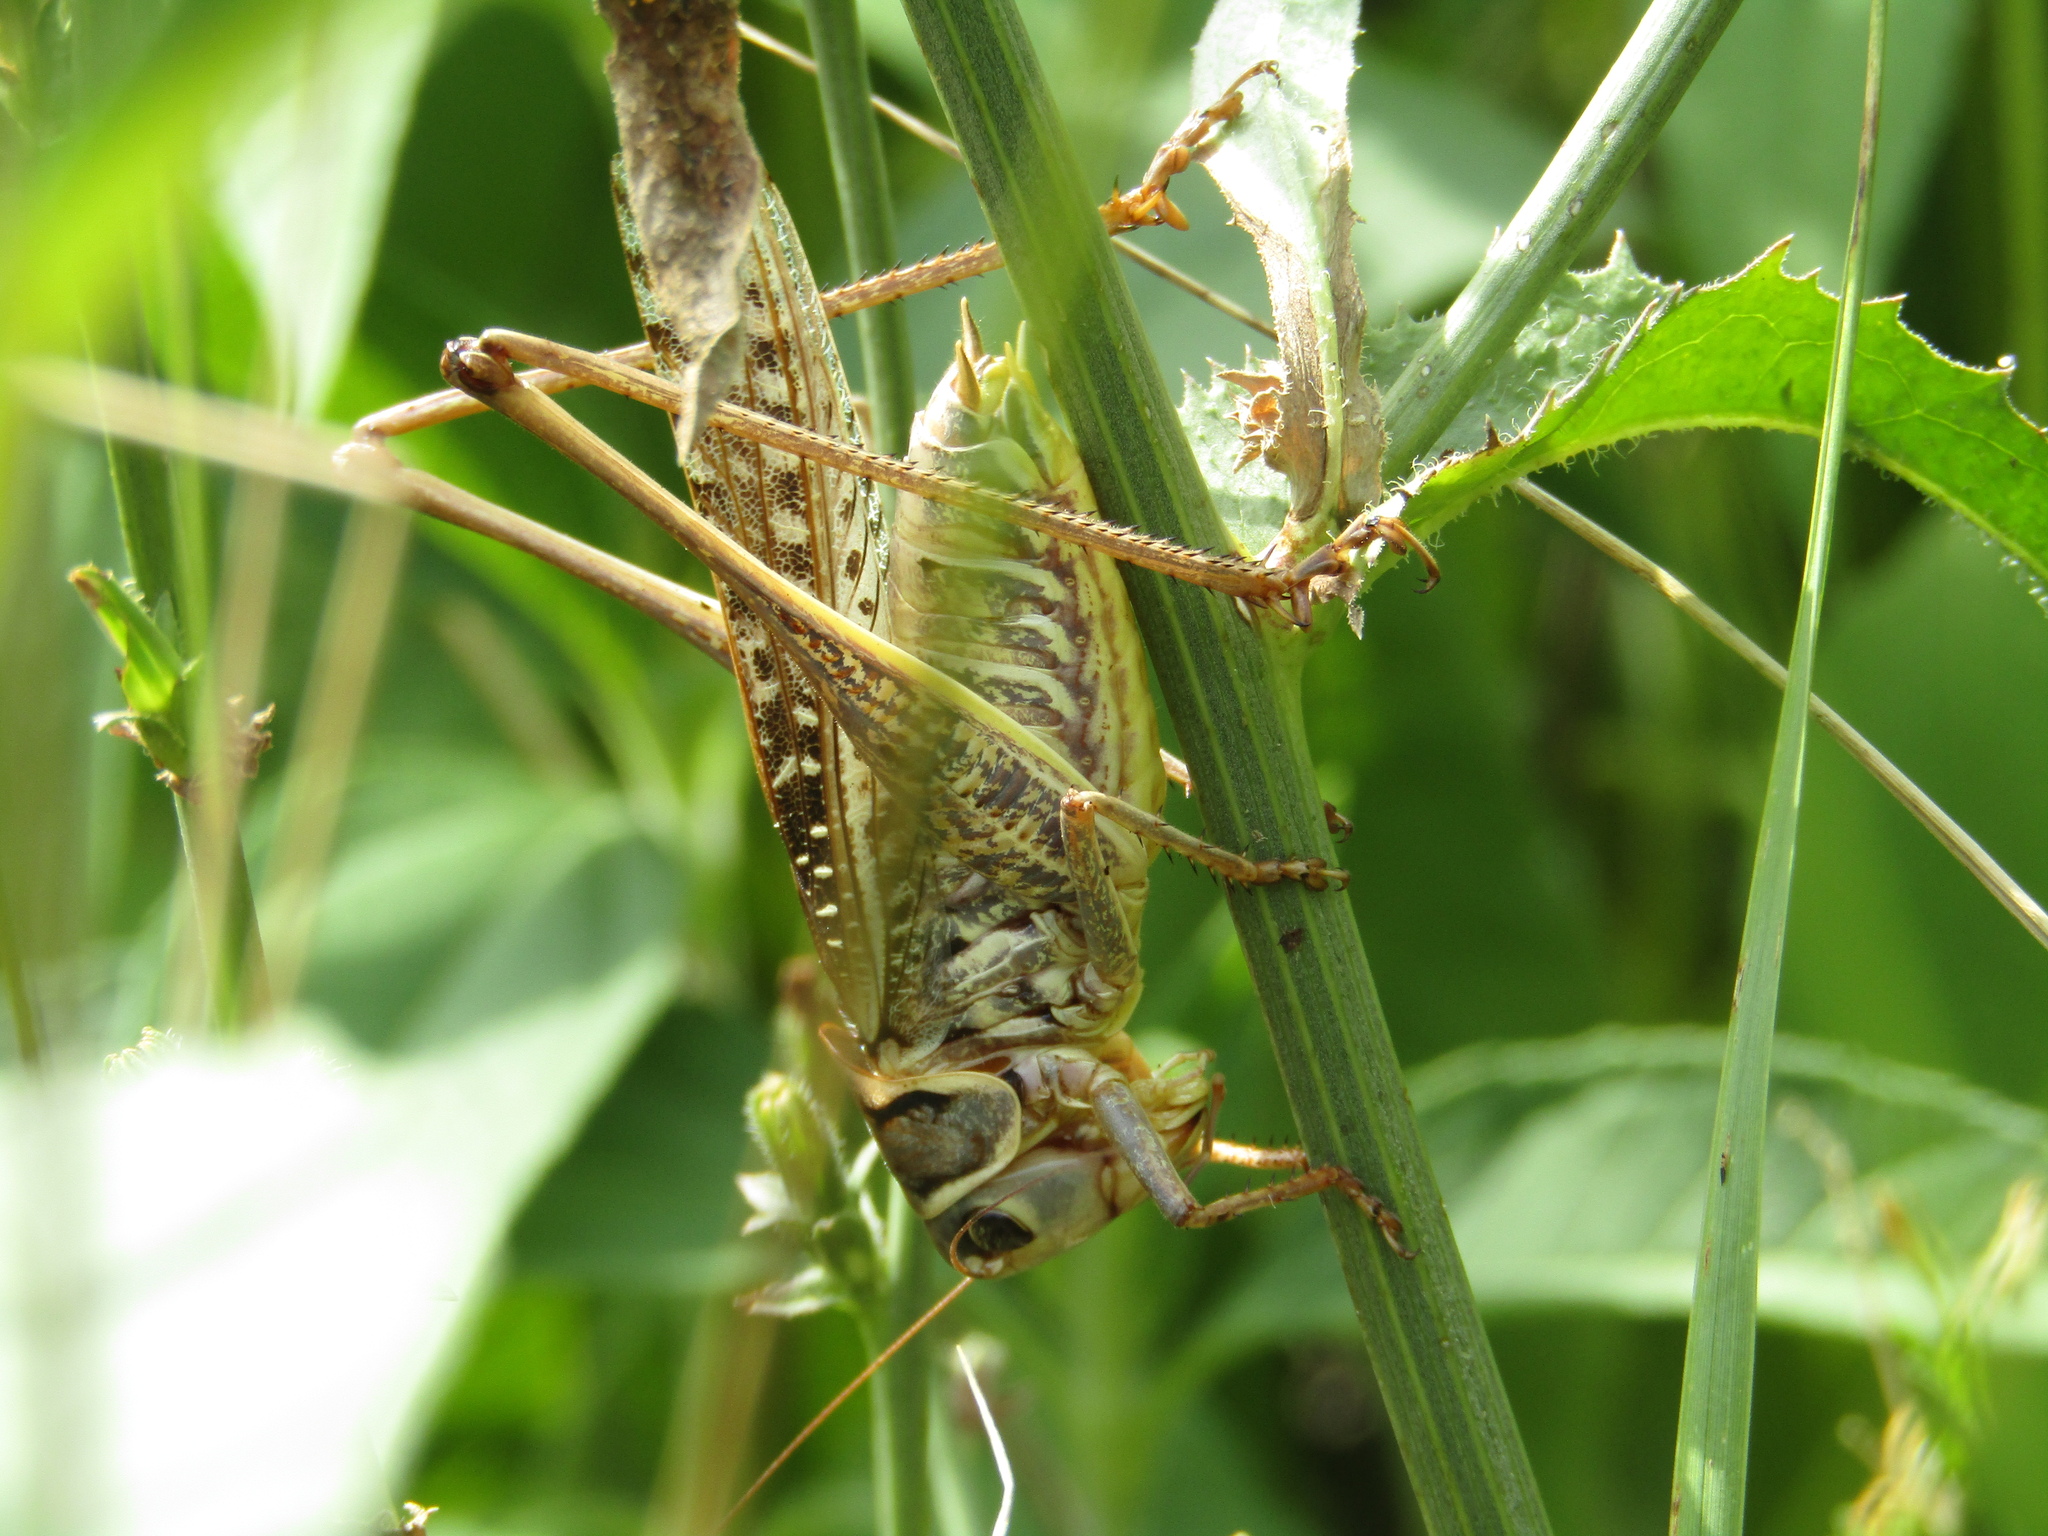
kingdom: Animalia
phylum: Arthropoda
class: Insecta
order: Orthoptera
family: Tettigoniidae
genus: Decticus
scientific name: Decticus albifrons
